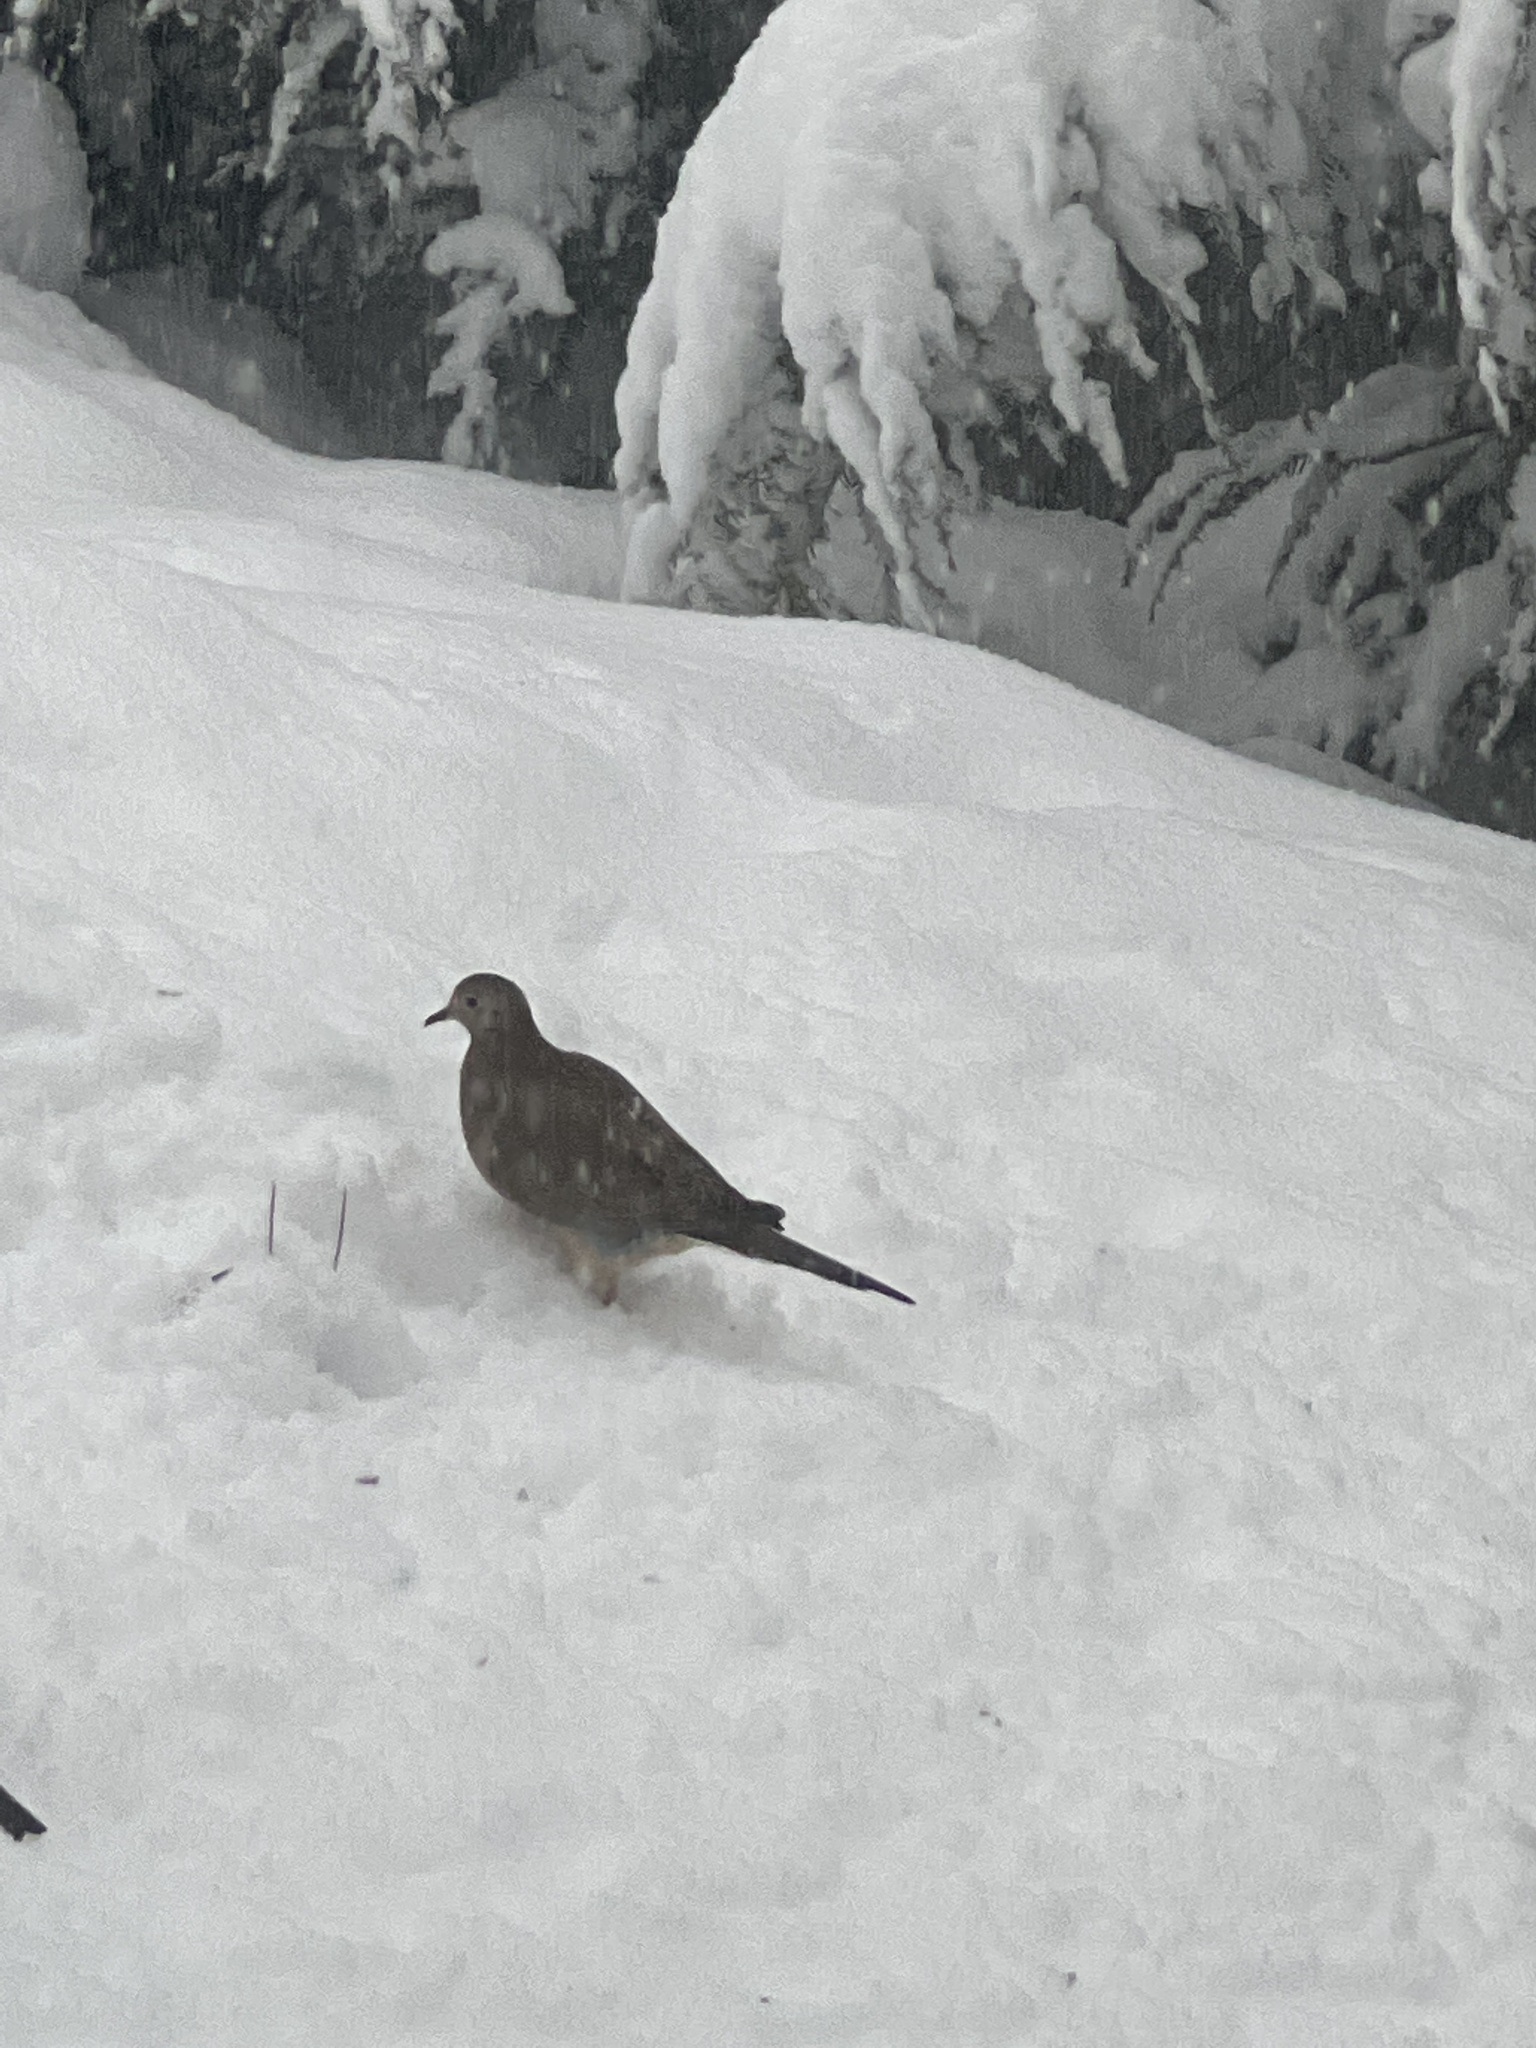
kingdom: Animalia
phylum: Chordata
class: Aves
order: Columbiformes
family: Columbidae
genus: Zenaida
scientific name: Zenaida macroura
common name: Mourning dove
